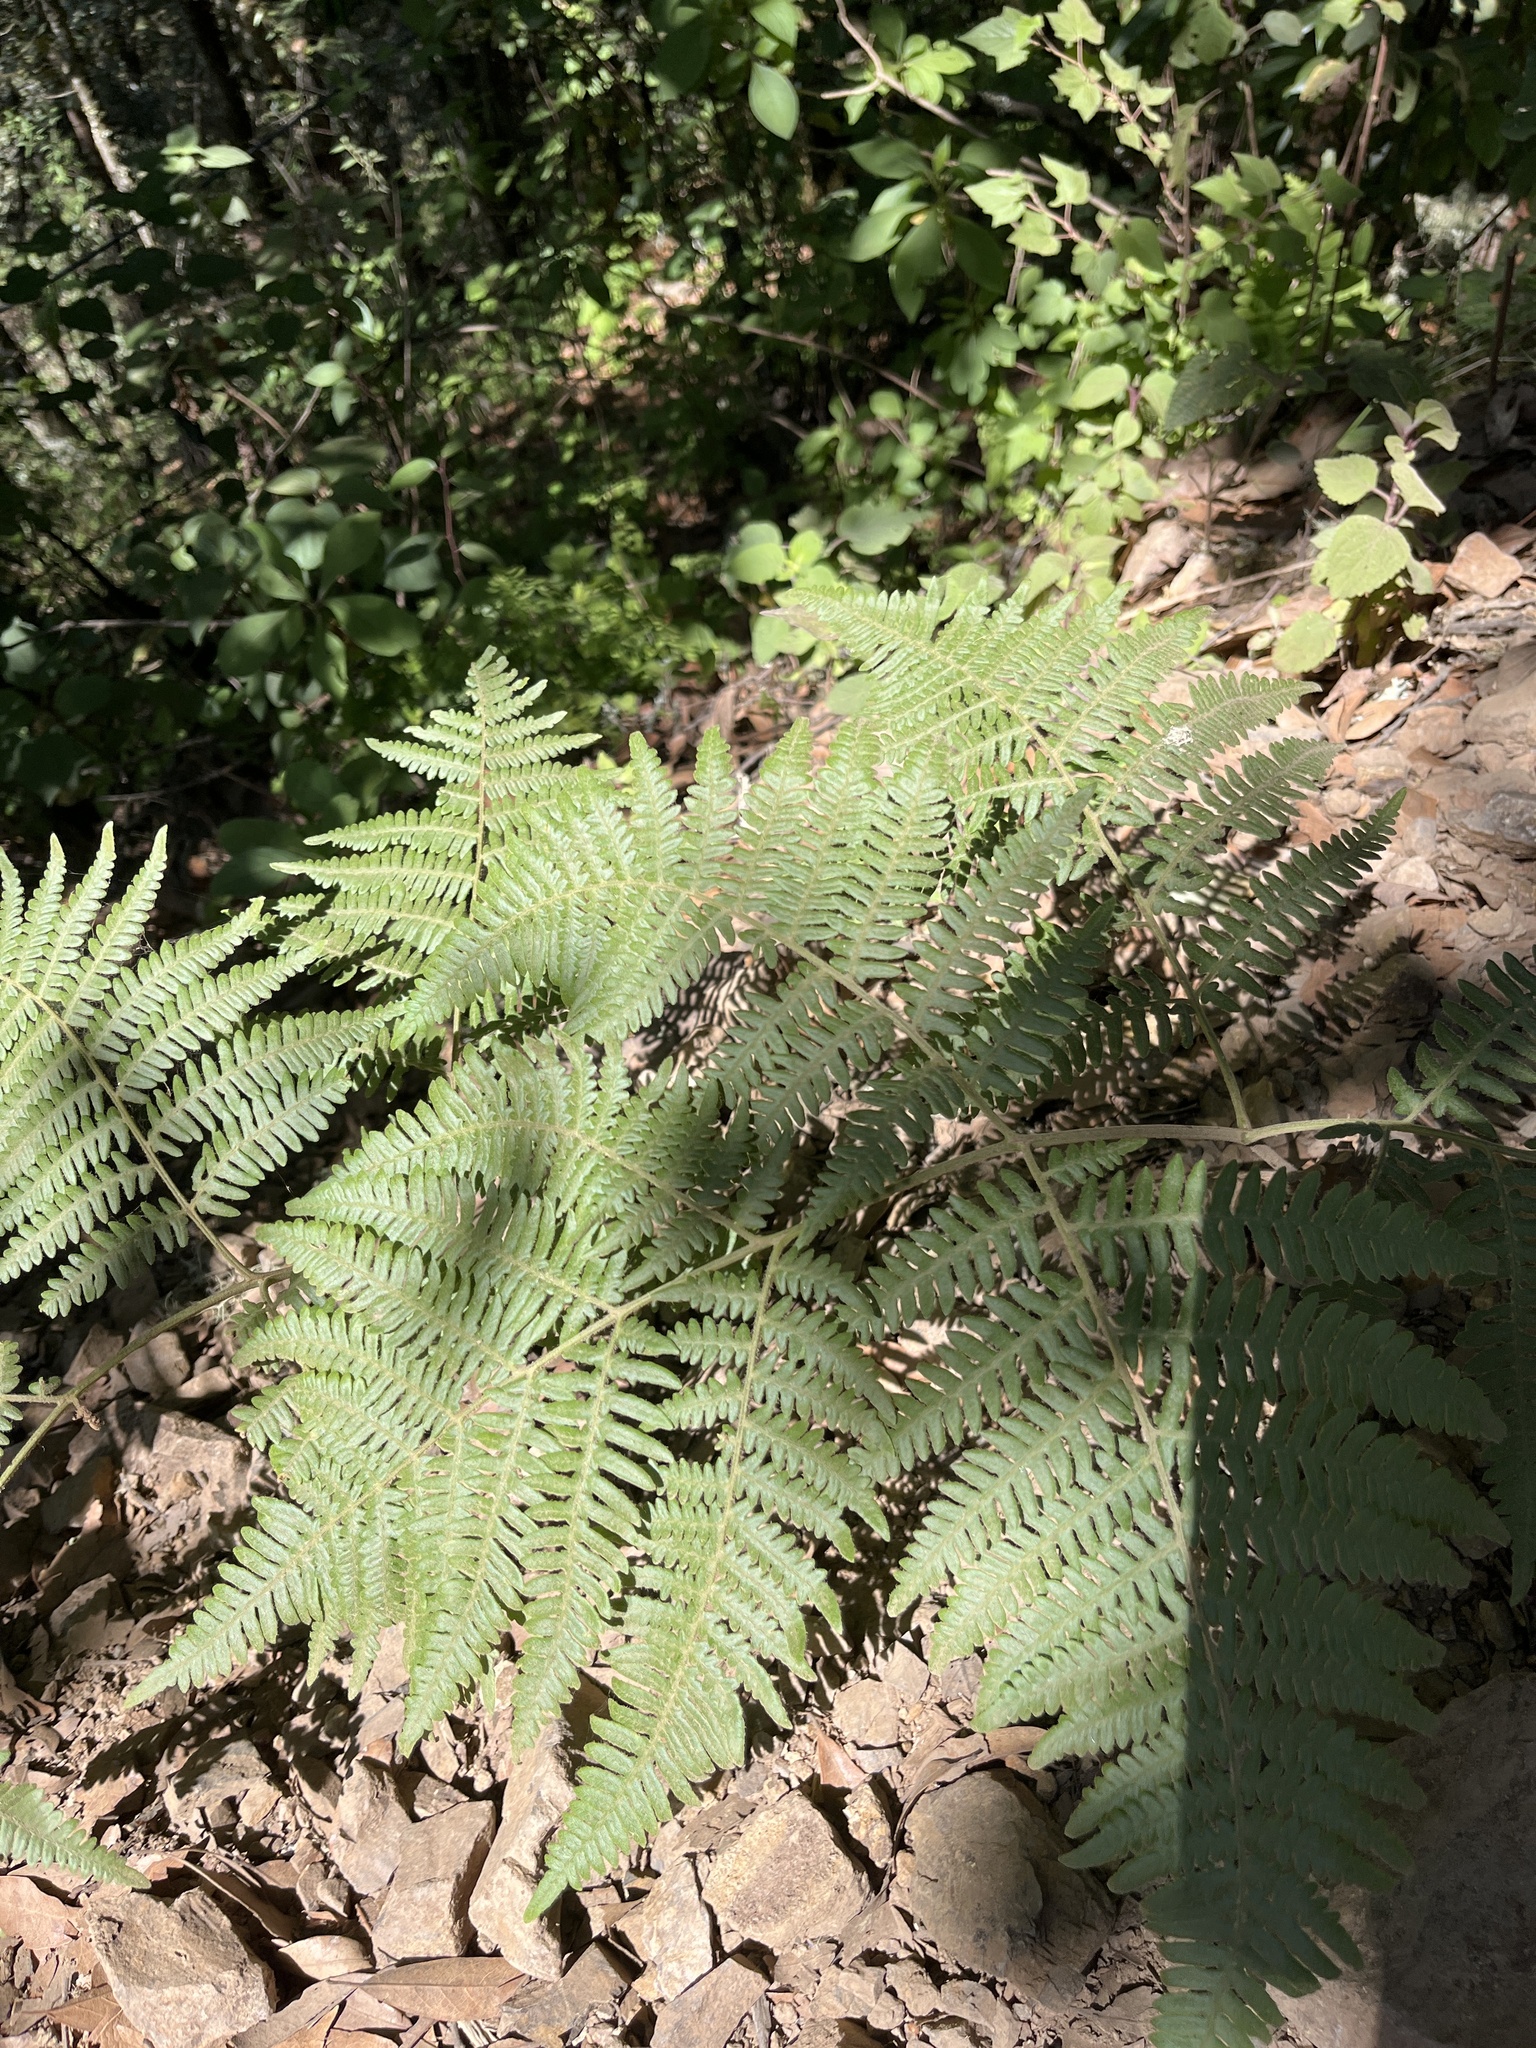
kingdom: Plantae
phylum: Tracheophyta
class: Polypodiopsida
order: Polypodiales
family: Dennstaedtiaceae
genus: Pteridium
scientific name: Pteridium aquilinum
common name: Bracken
